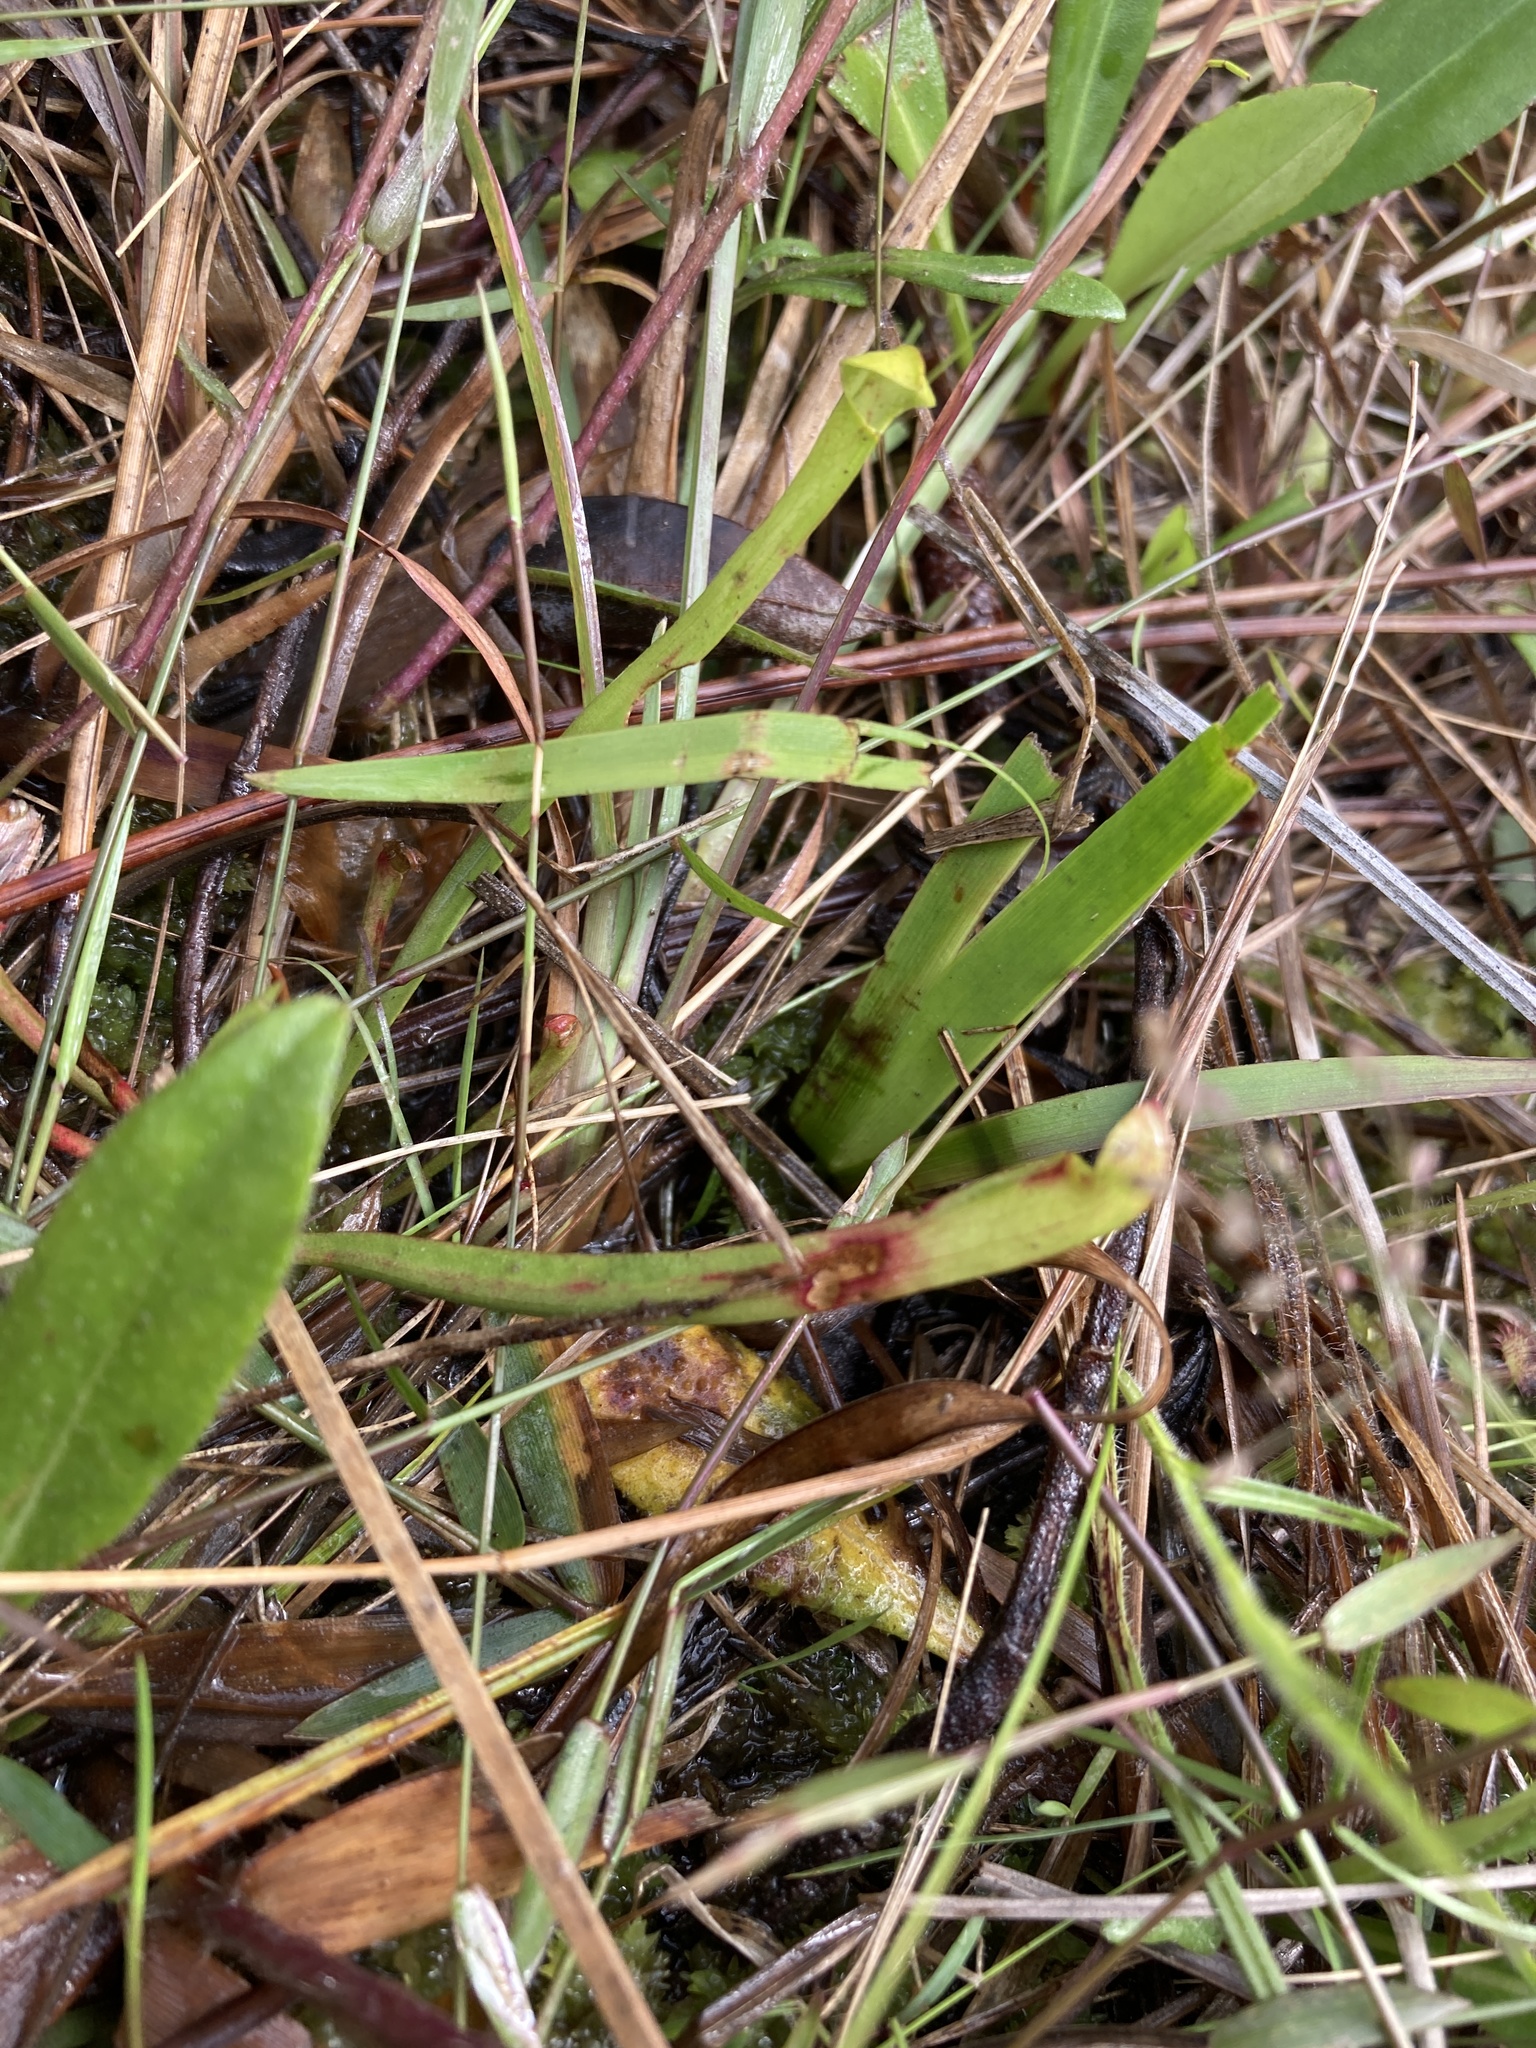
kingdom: Plantae
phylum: Tracheophyta
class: Magnoliopsida
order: Ericales
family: Sarraceniaceae
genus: Sarracenia
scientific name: Sarracenia alata
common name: Yellow trumpets
